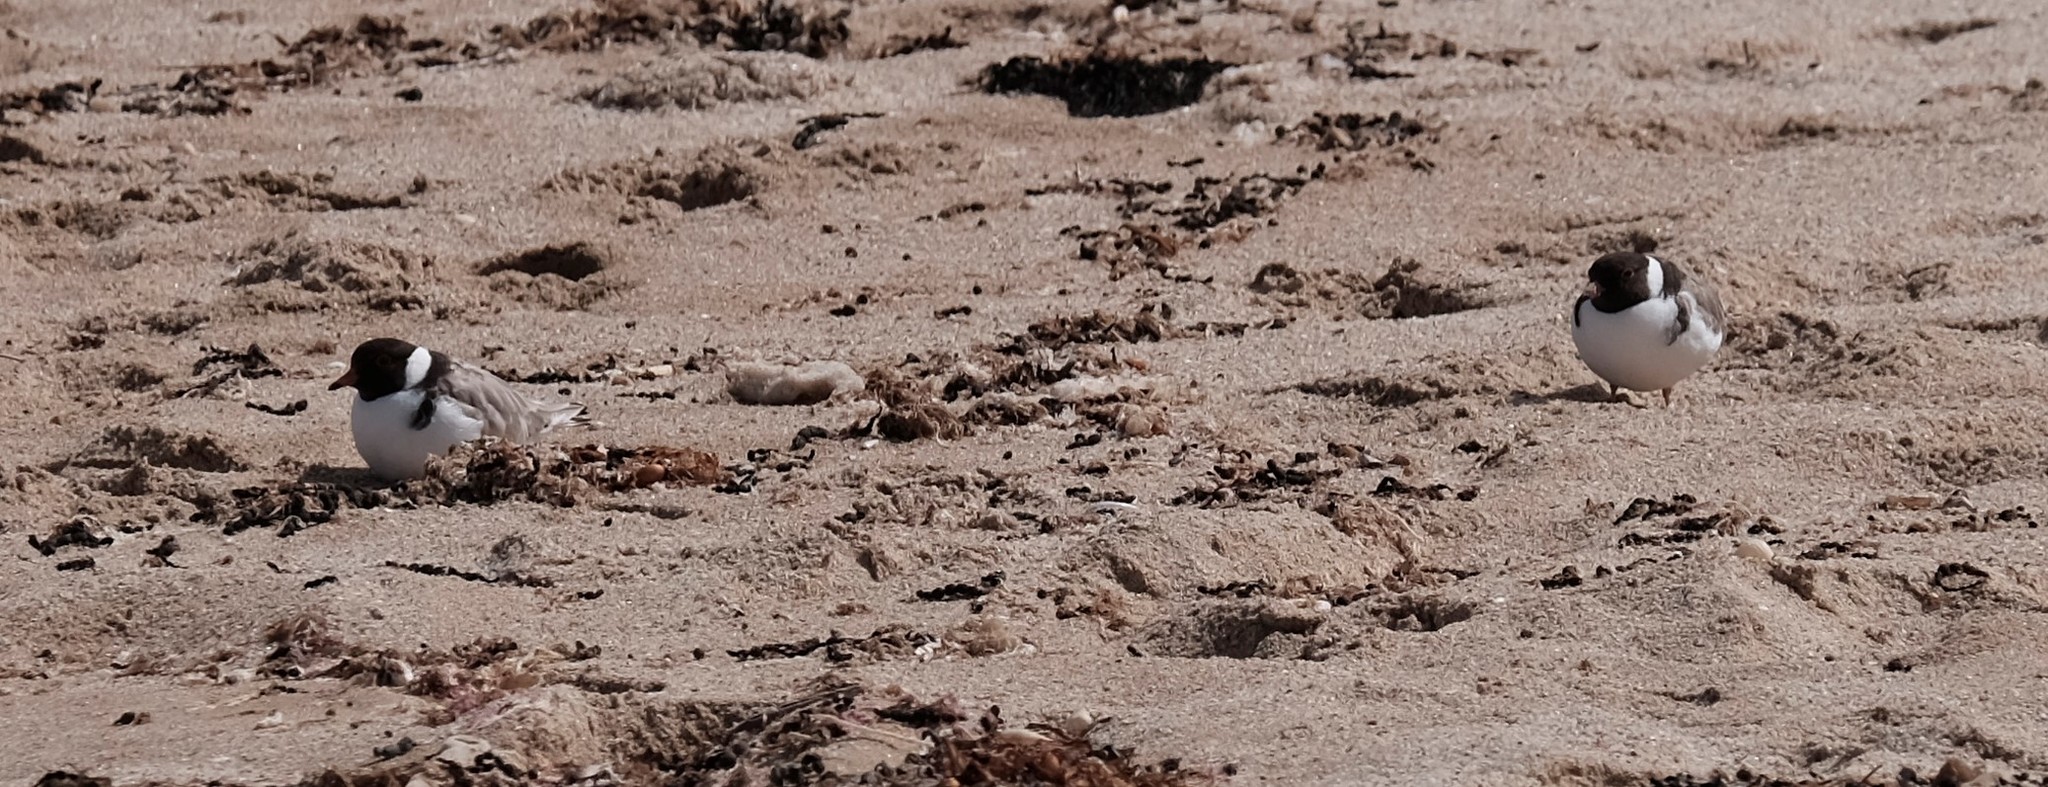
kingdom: Animalia
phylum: Chordata
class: Aves
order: Charadriiformes
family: Charadriidae
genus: Thinornis
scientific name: Thinornis cucullatus
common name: Hooded dotterel
